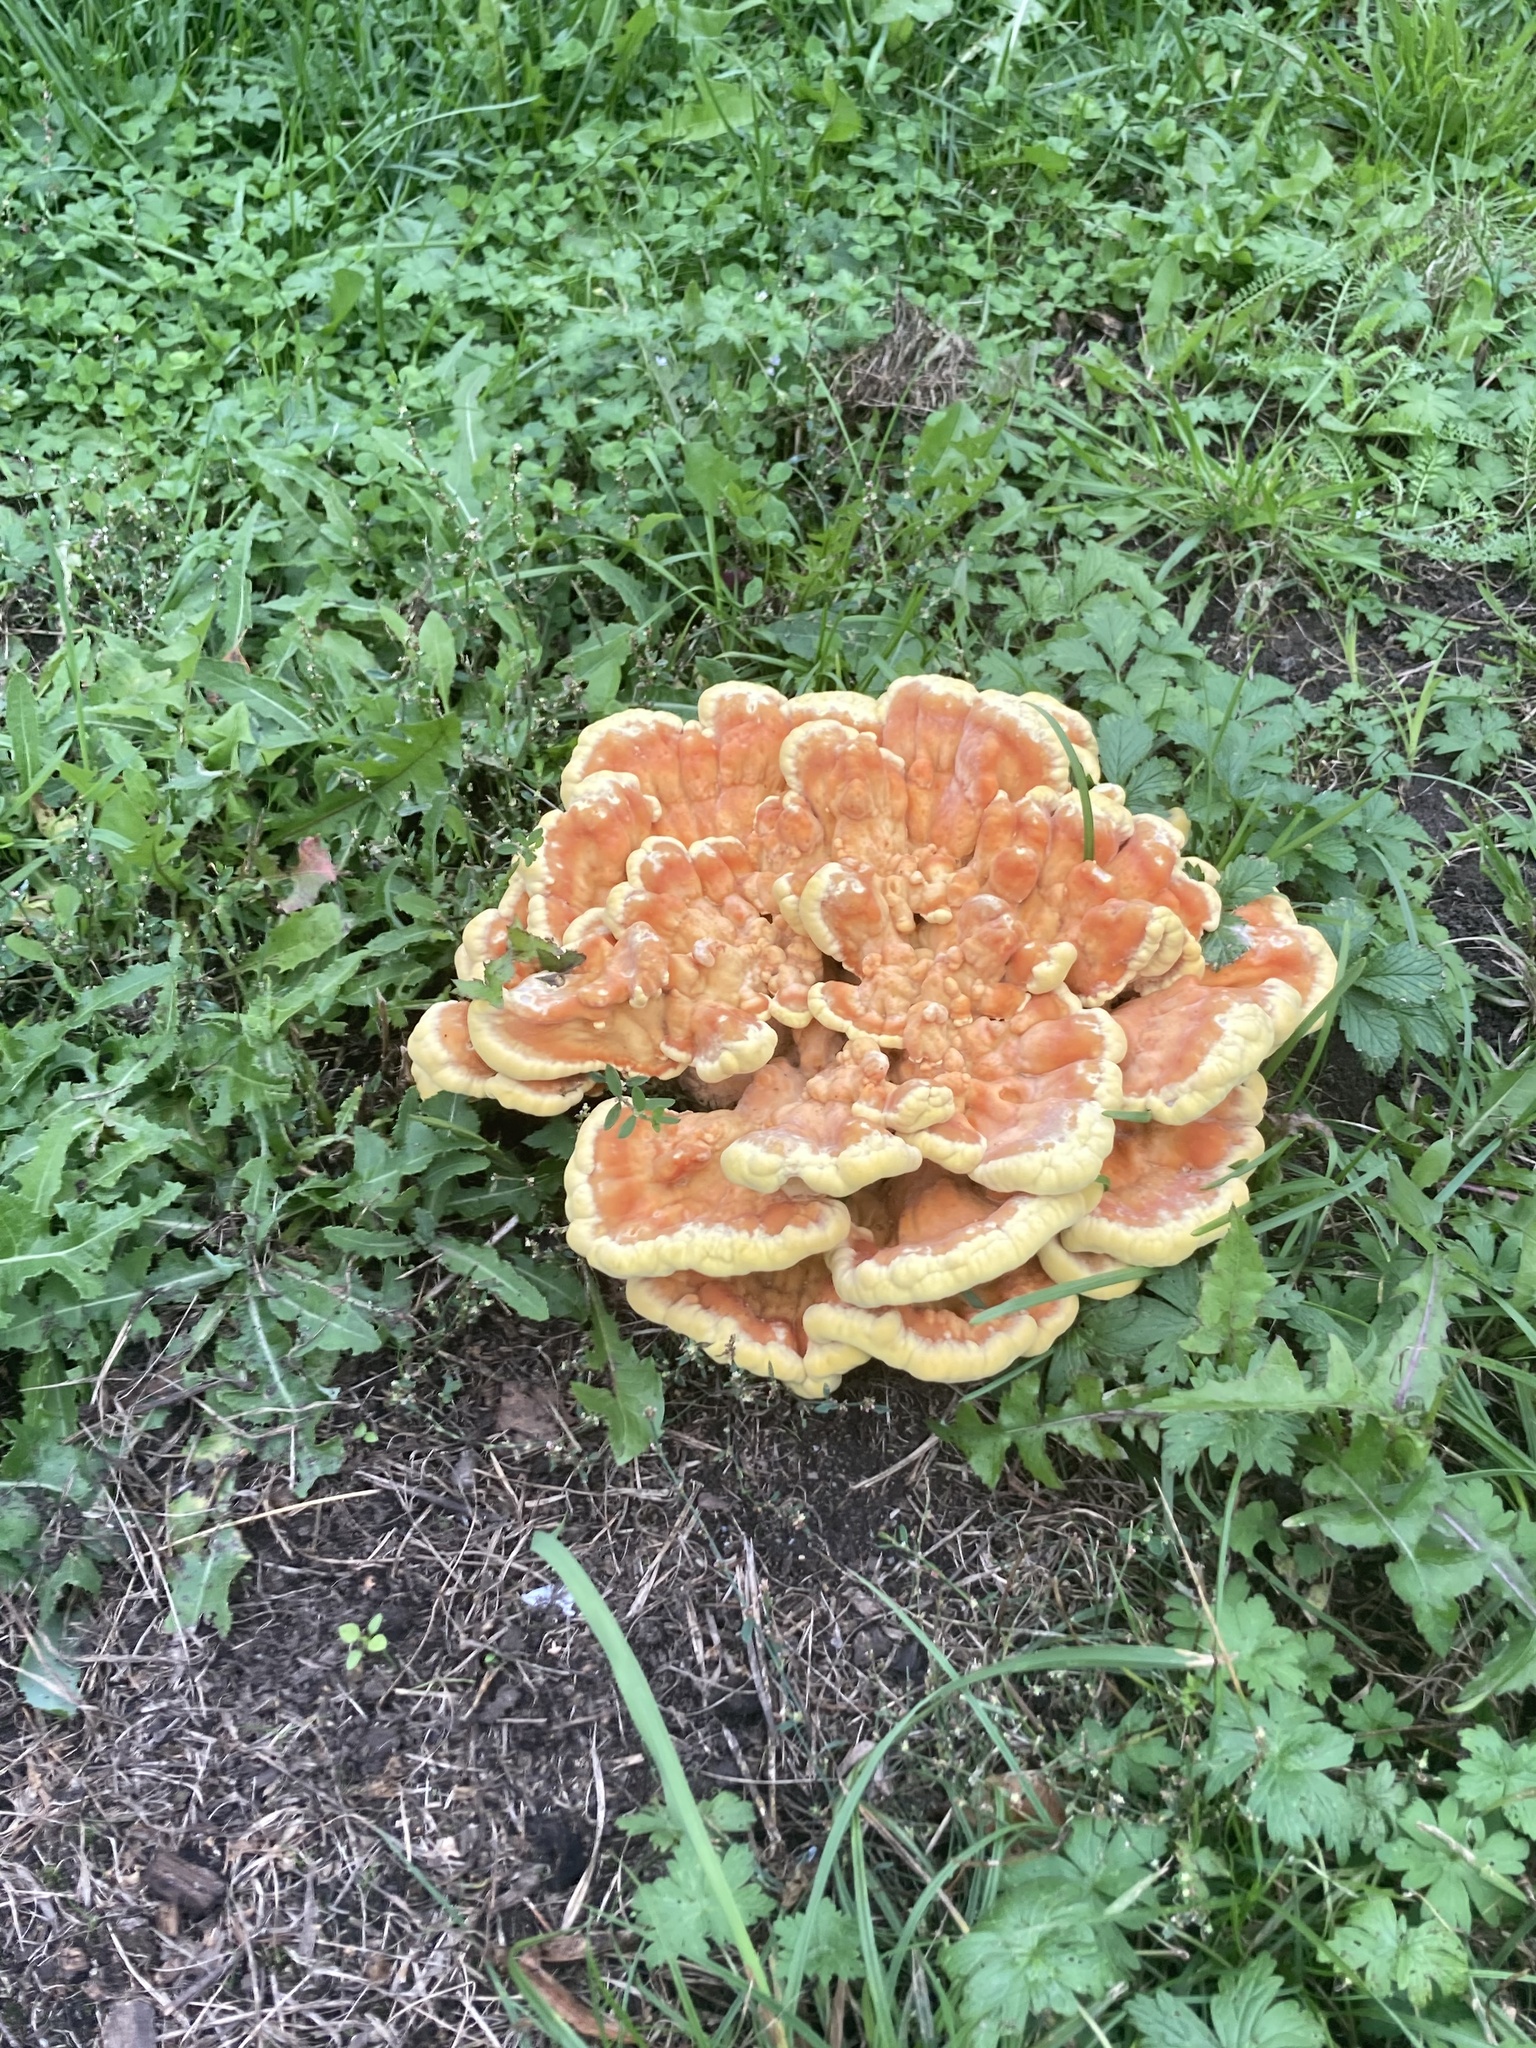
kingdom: Fungi
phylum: Basidiomycota
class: Agaricomycetes
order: Polyporales
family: Laetiporaceae
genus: Laetiporus
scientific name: Laetiporus sulphureus
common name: Chicken of the woods
